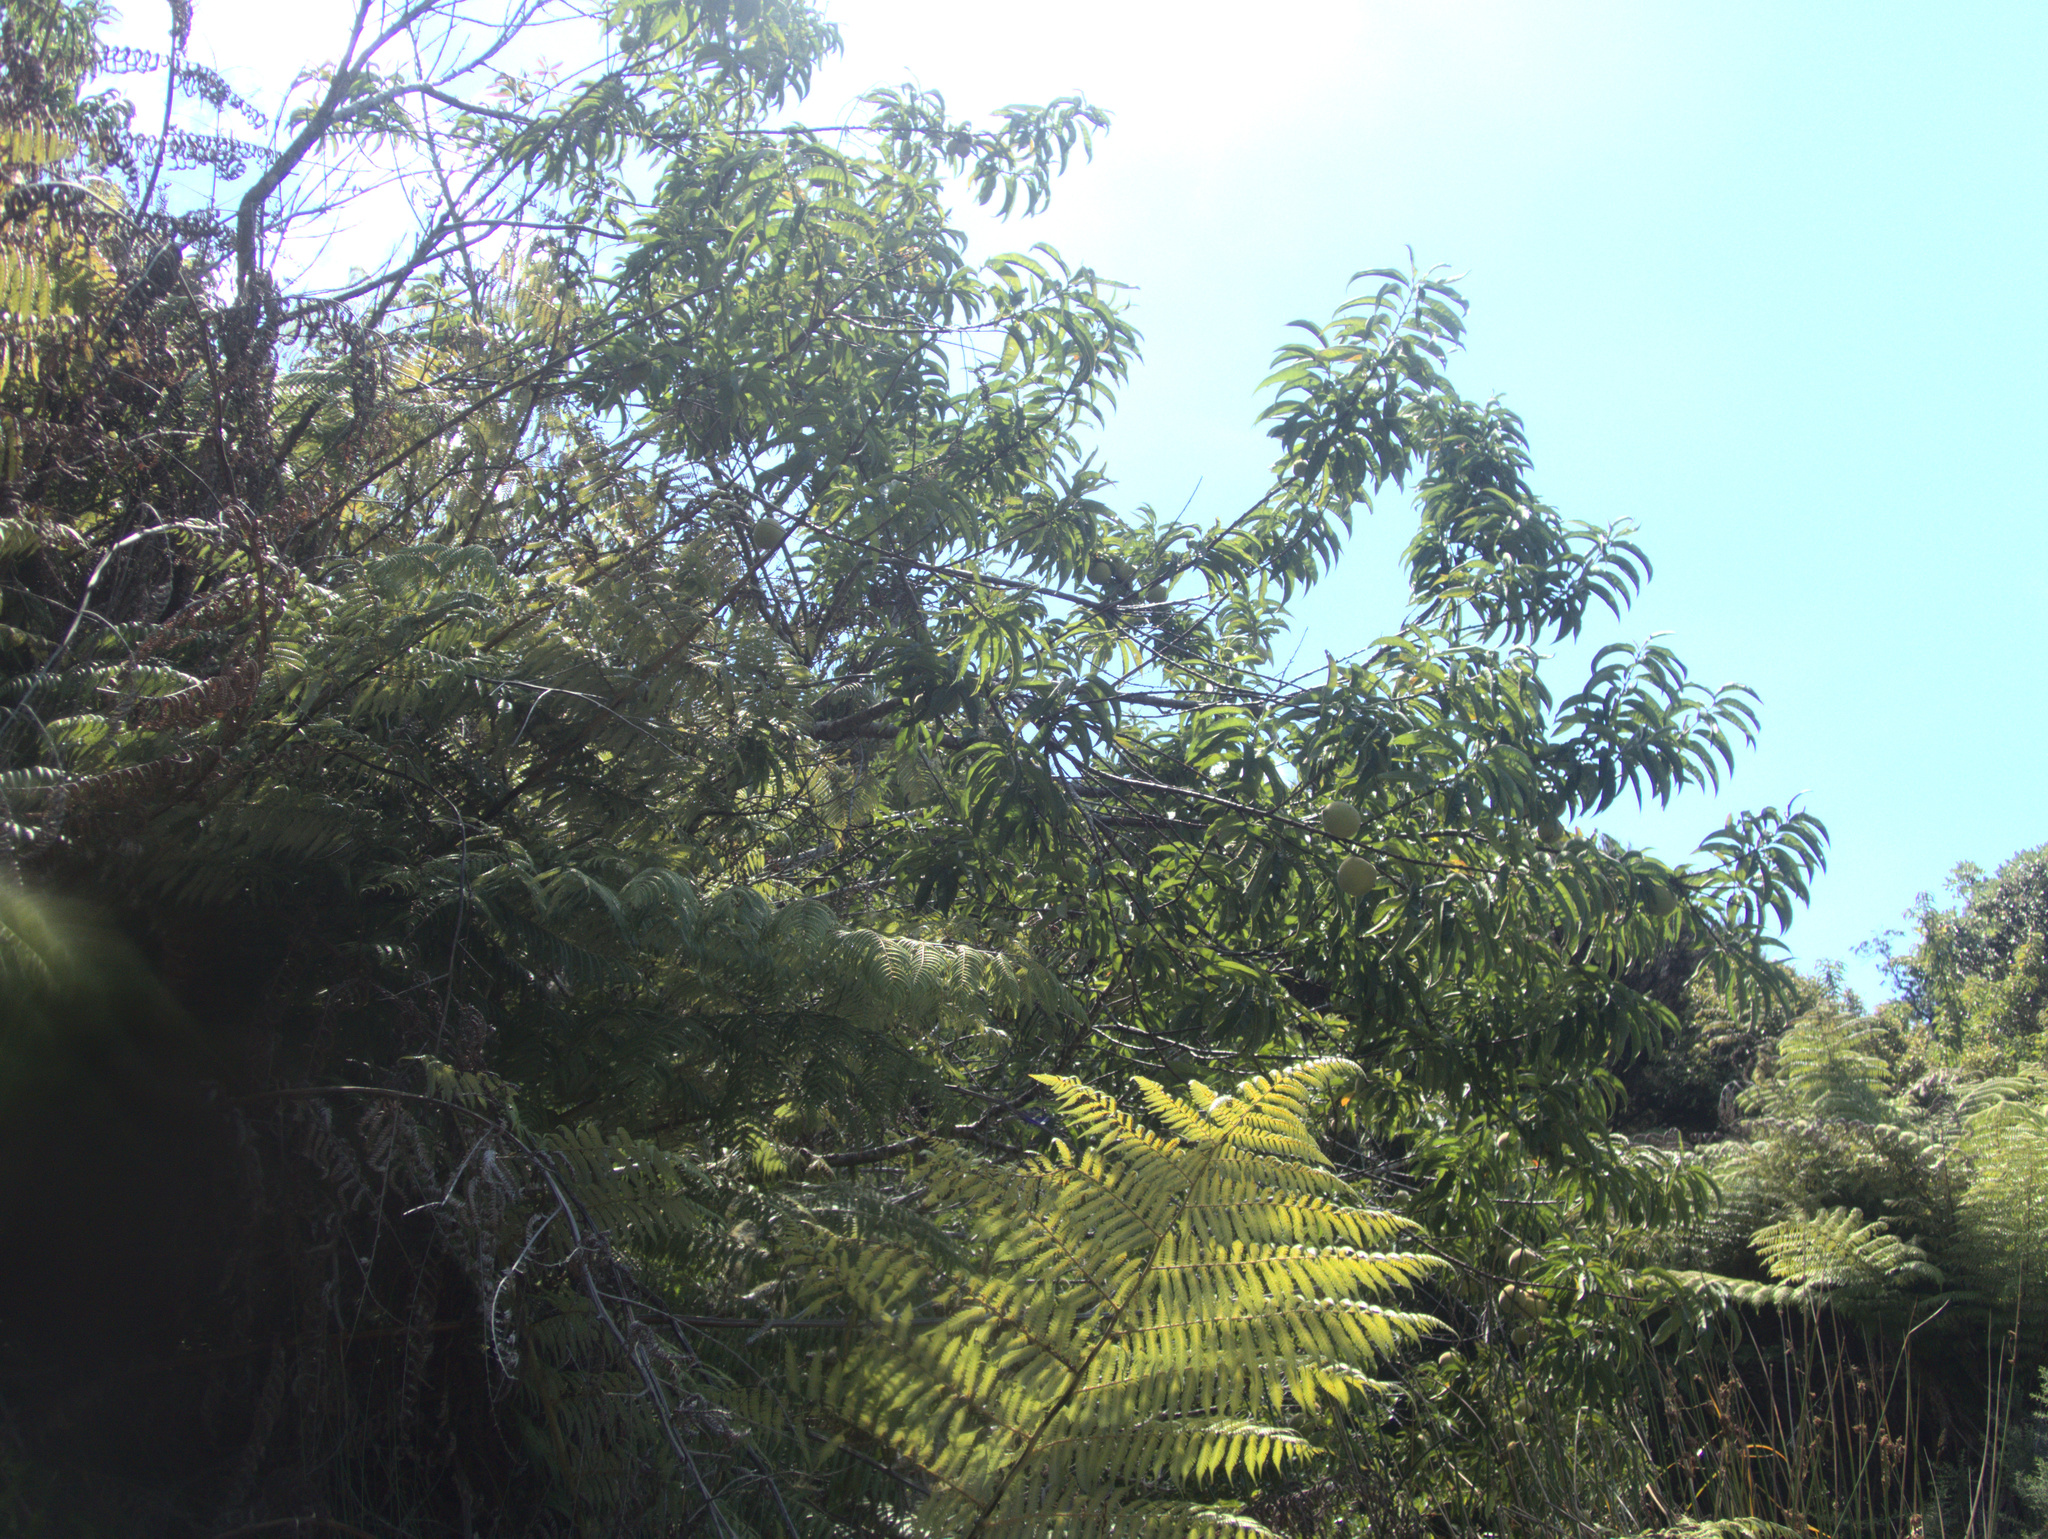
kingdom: Plantae
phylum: Tracheophyta
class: Magnoliopsida
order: Rosales
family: Rosaceae
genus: Prunus
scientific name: Prunus persica
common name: Peach
